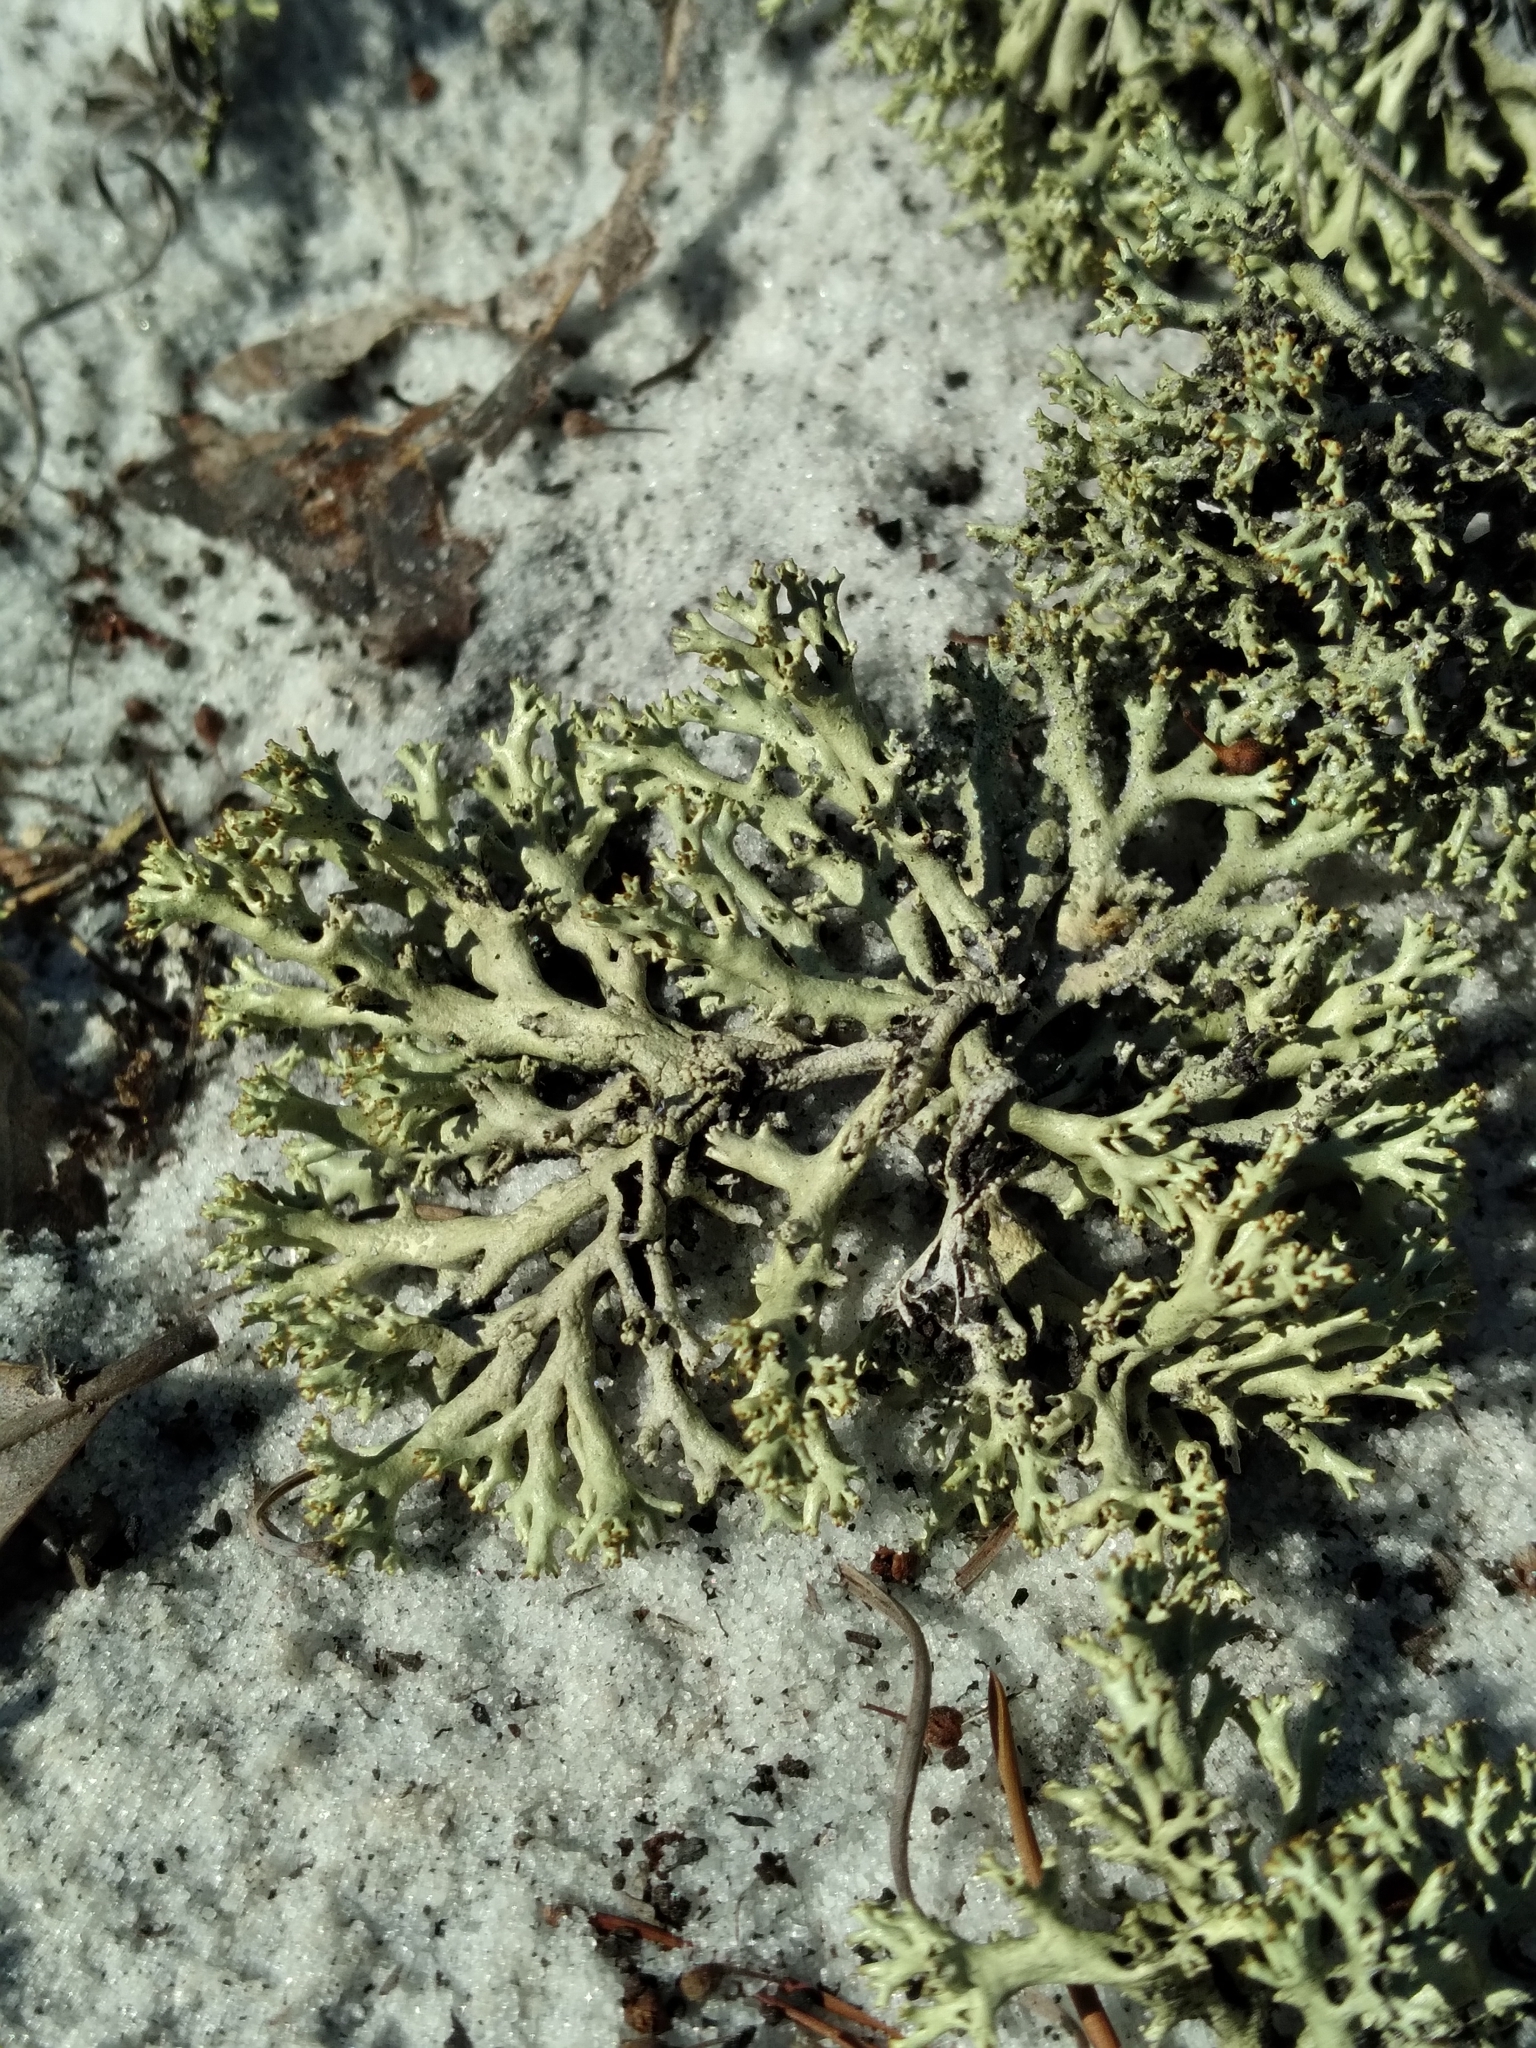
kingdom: Fungi
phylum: Ascomycota
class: Lecanoromycetes
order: Lecanorales
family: Cladoniaceae
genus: Cladonia
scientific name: Cladonia perforata
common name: Florida perforate reindeer lichen
